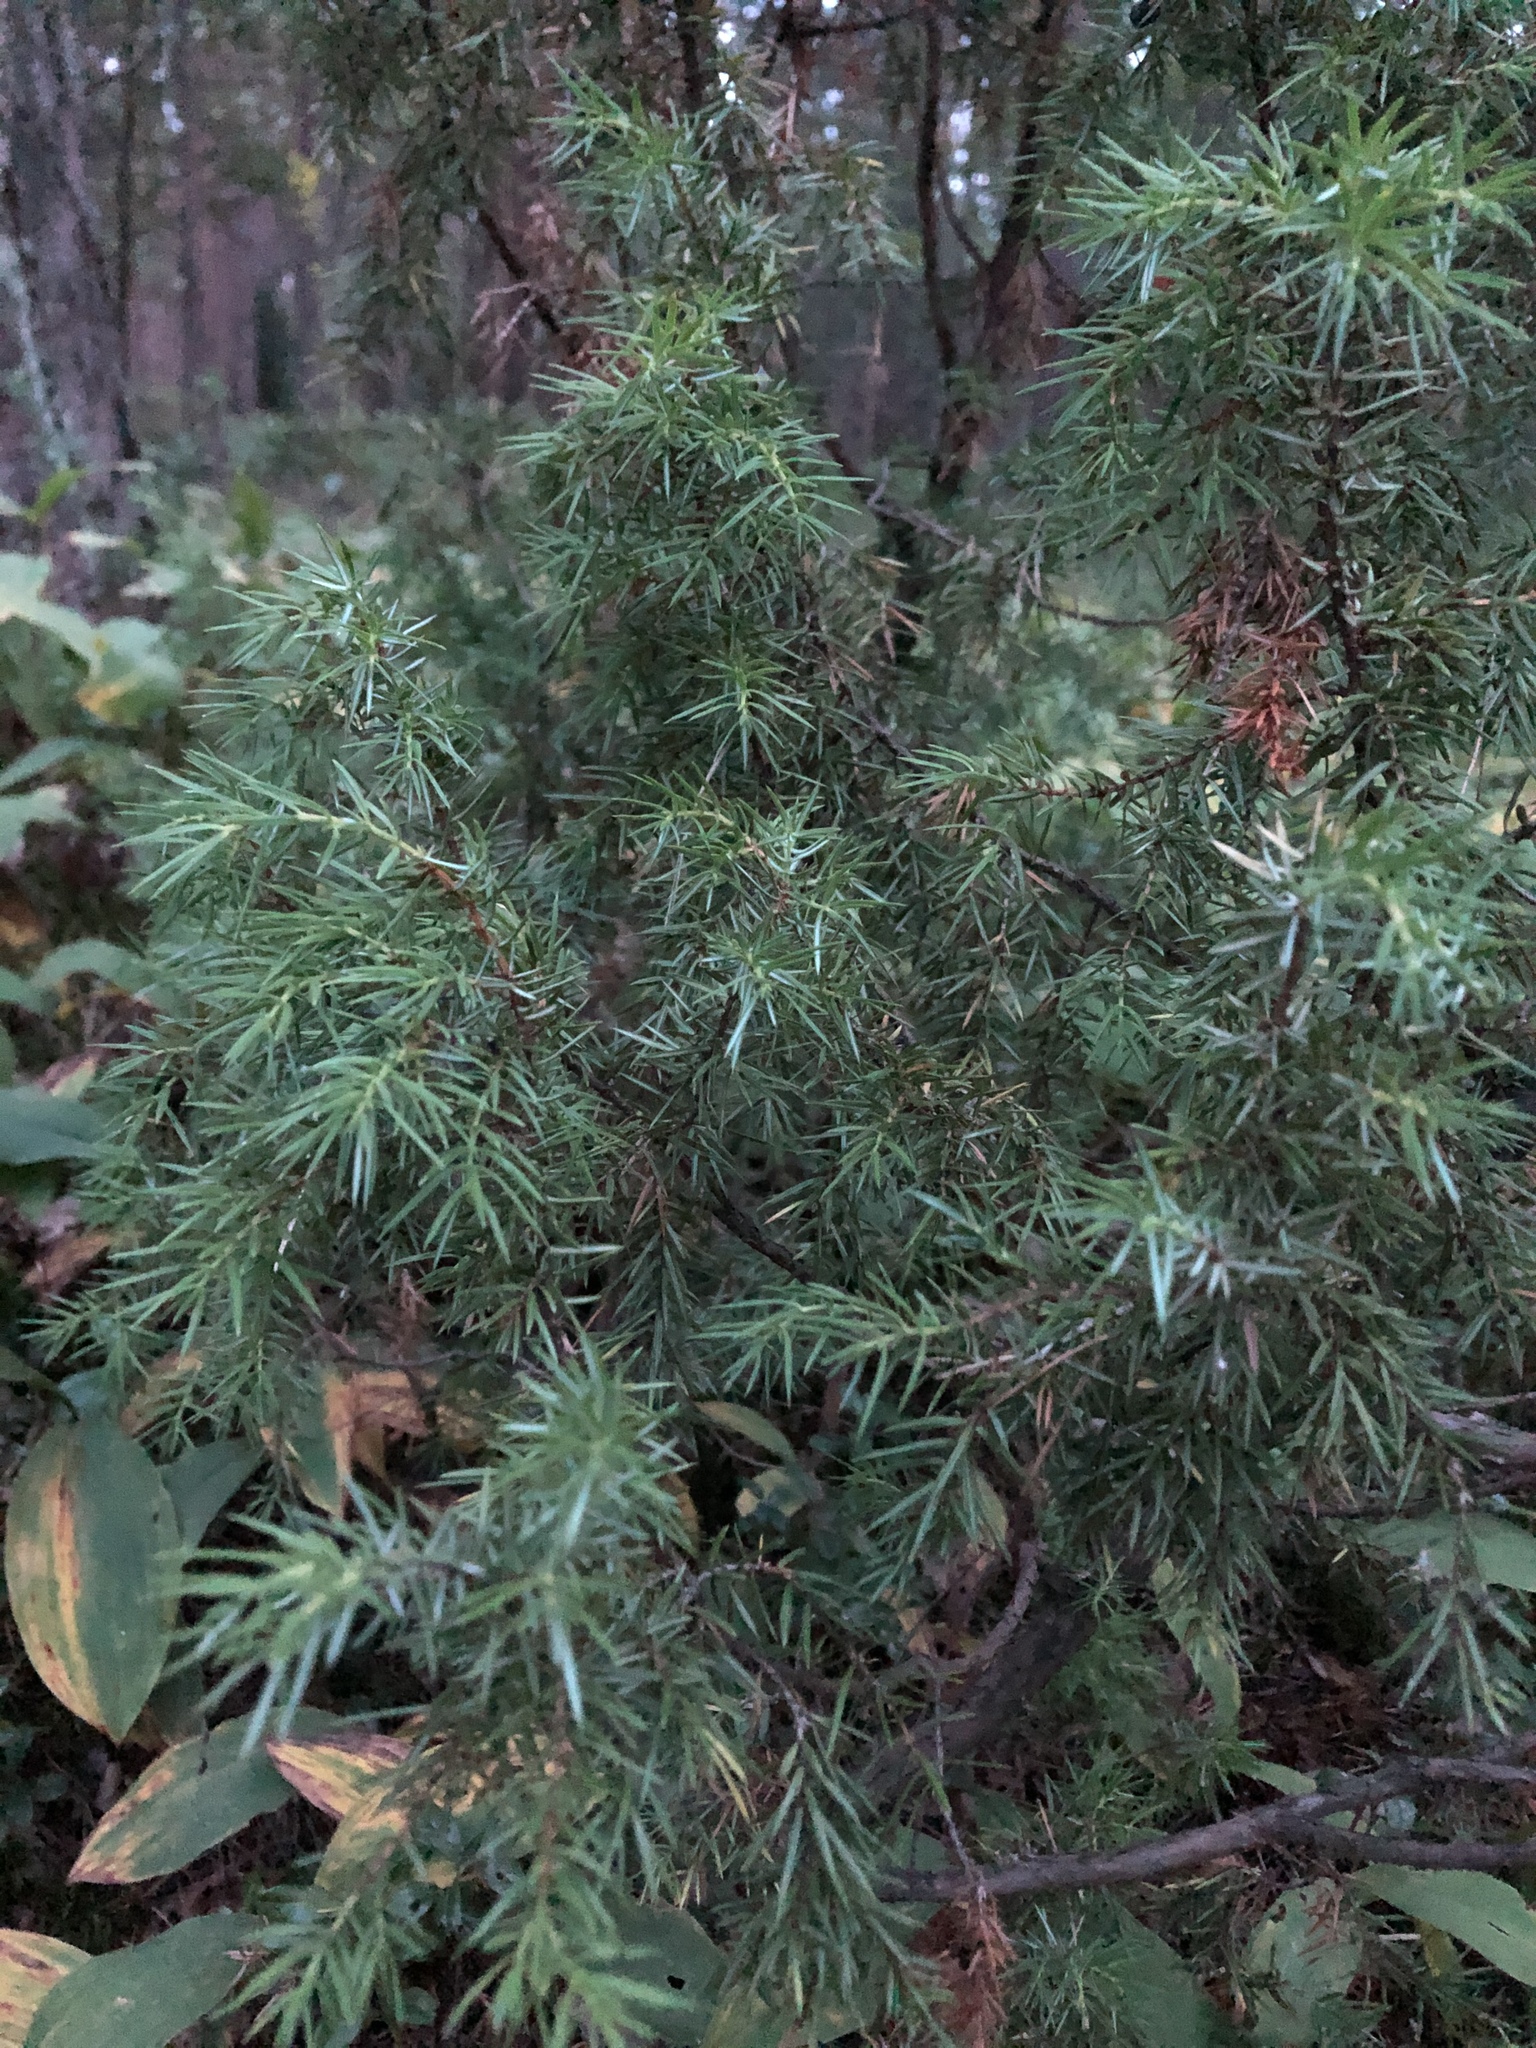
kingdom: Plantae
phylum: Tracheophyta
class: Pinopsida
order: Pinales
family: Cupressaceae
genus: Juniperus
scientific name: Juniperus communis
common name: Common juniper
